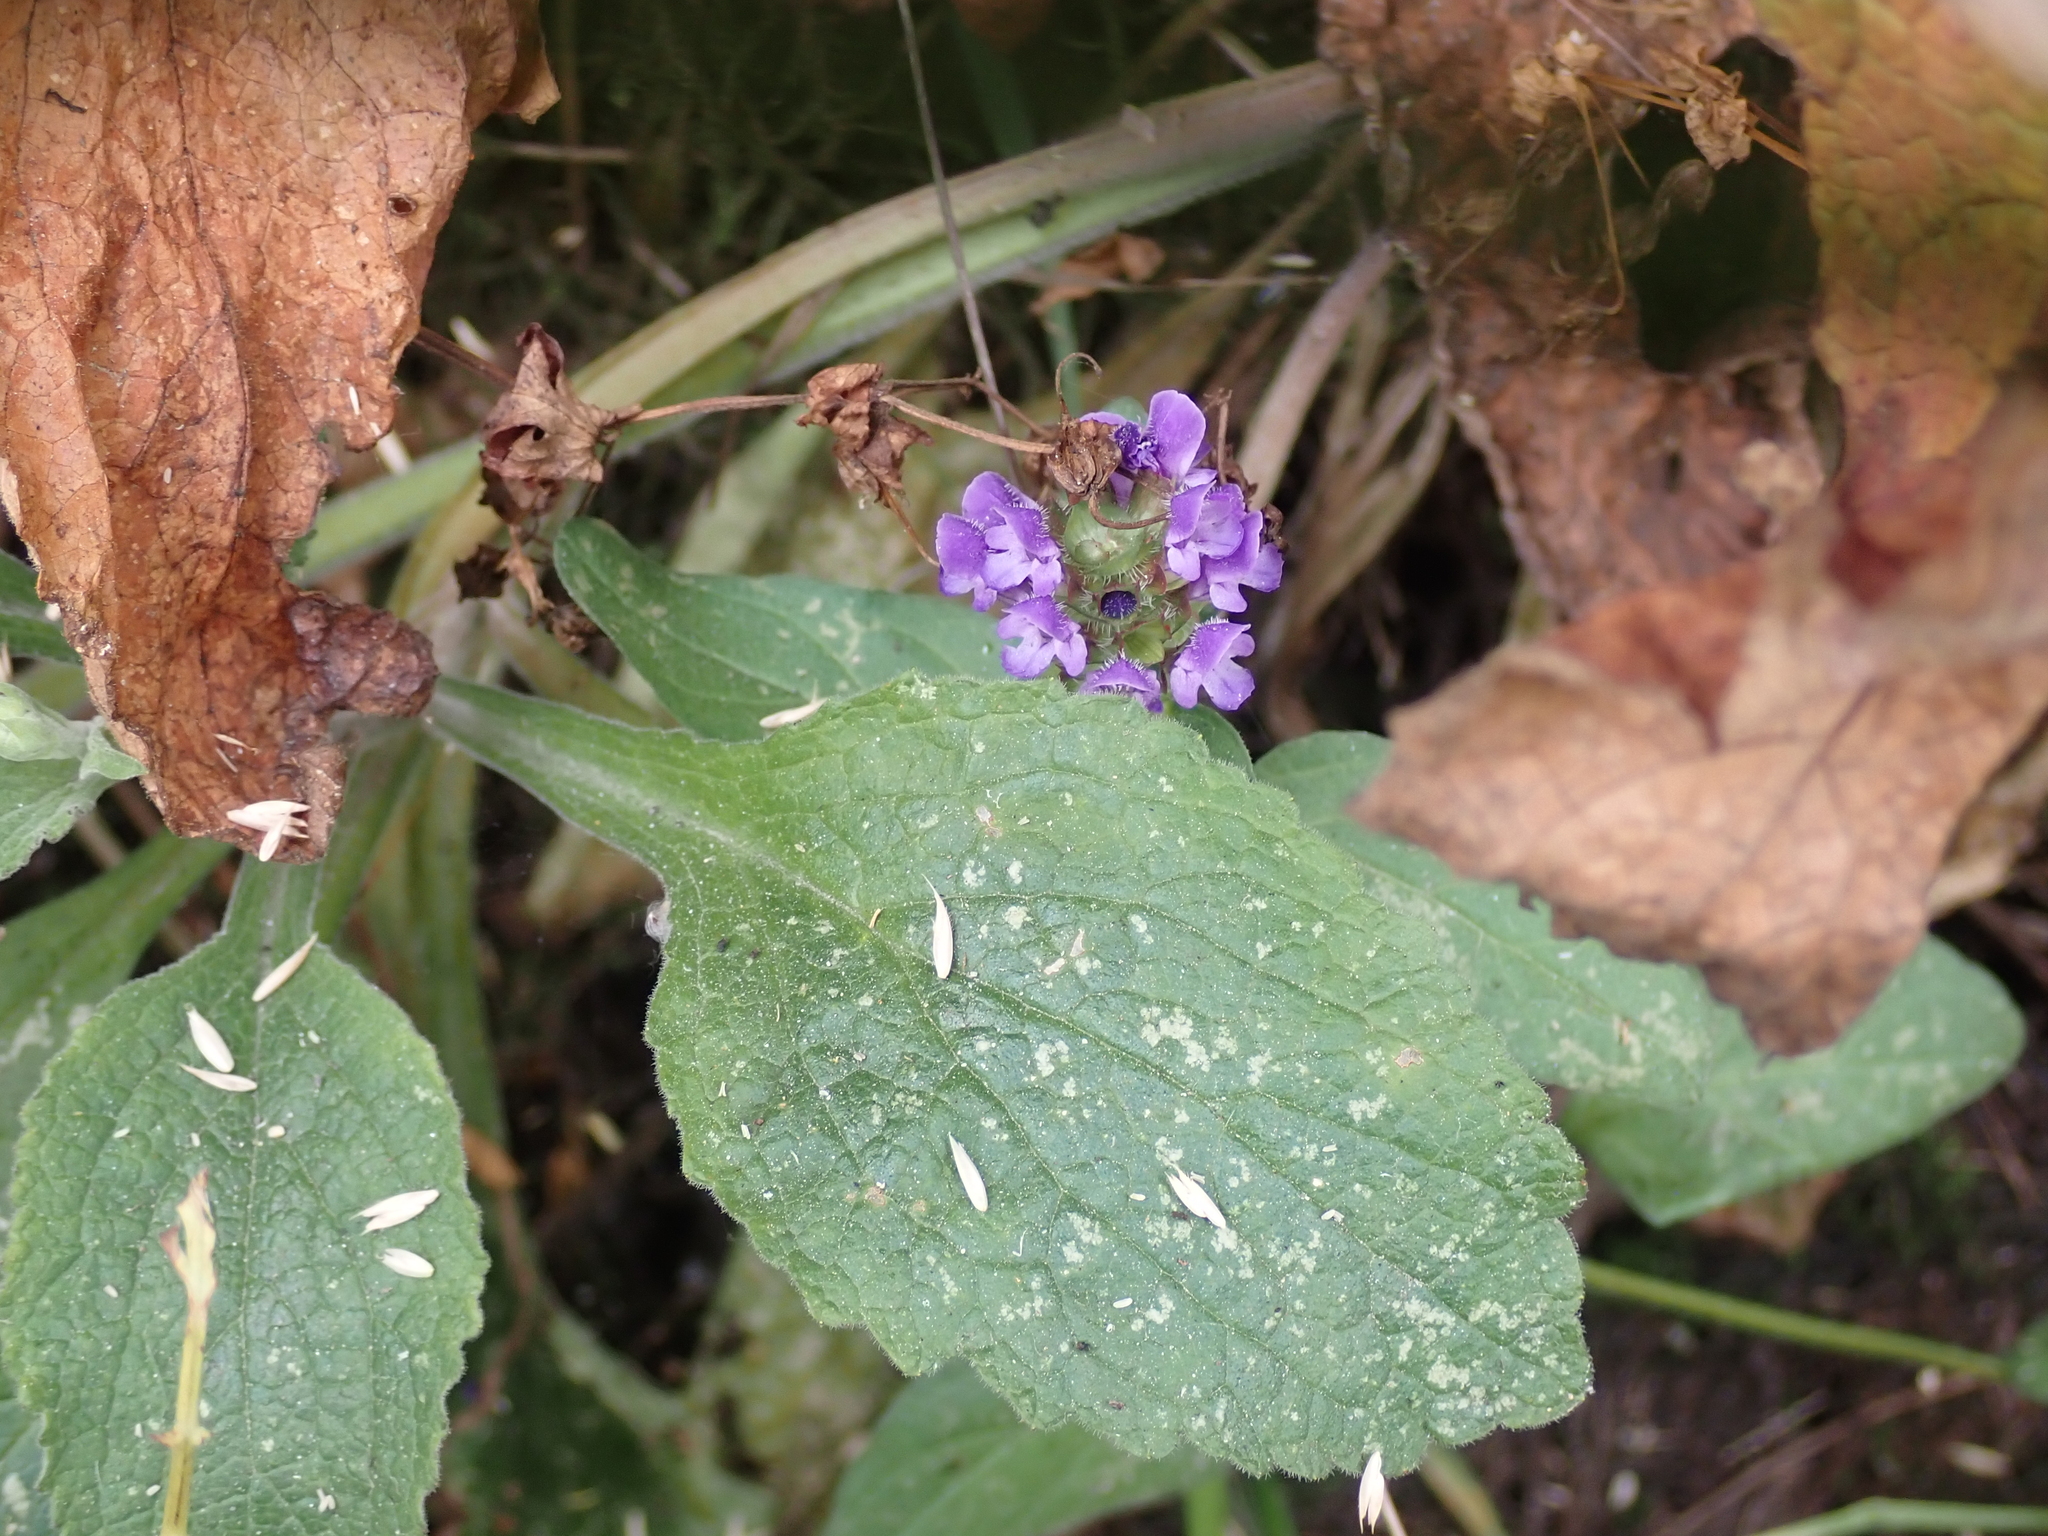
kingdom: Plantae
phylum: Tracheophyta
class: Magnoliopsida
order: Lamiales
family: Lamiaceae
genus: Prunella
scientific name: Prunella vulgaris
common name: Heal-all
